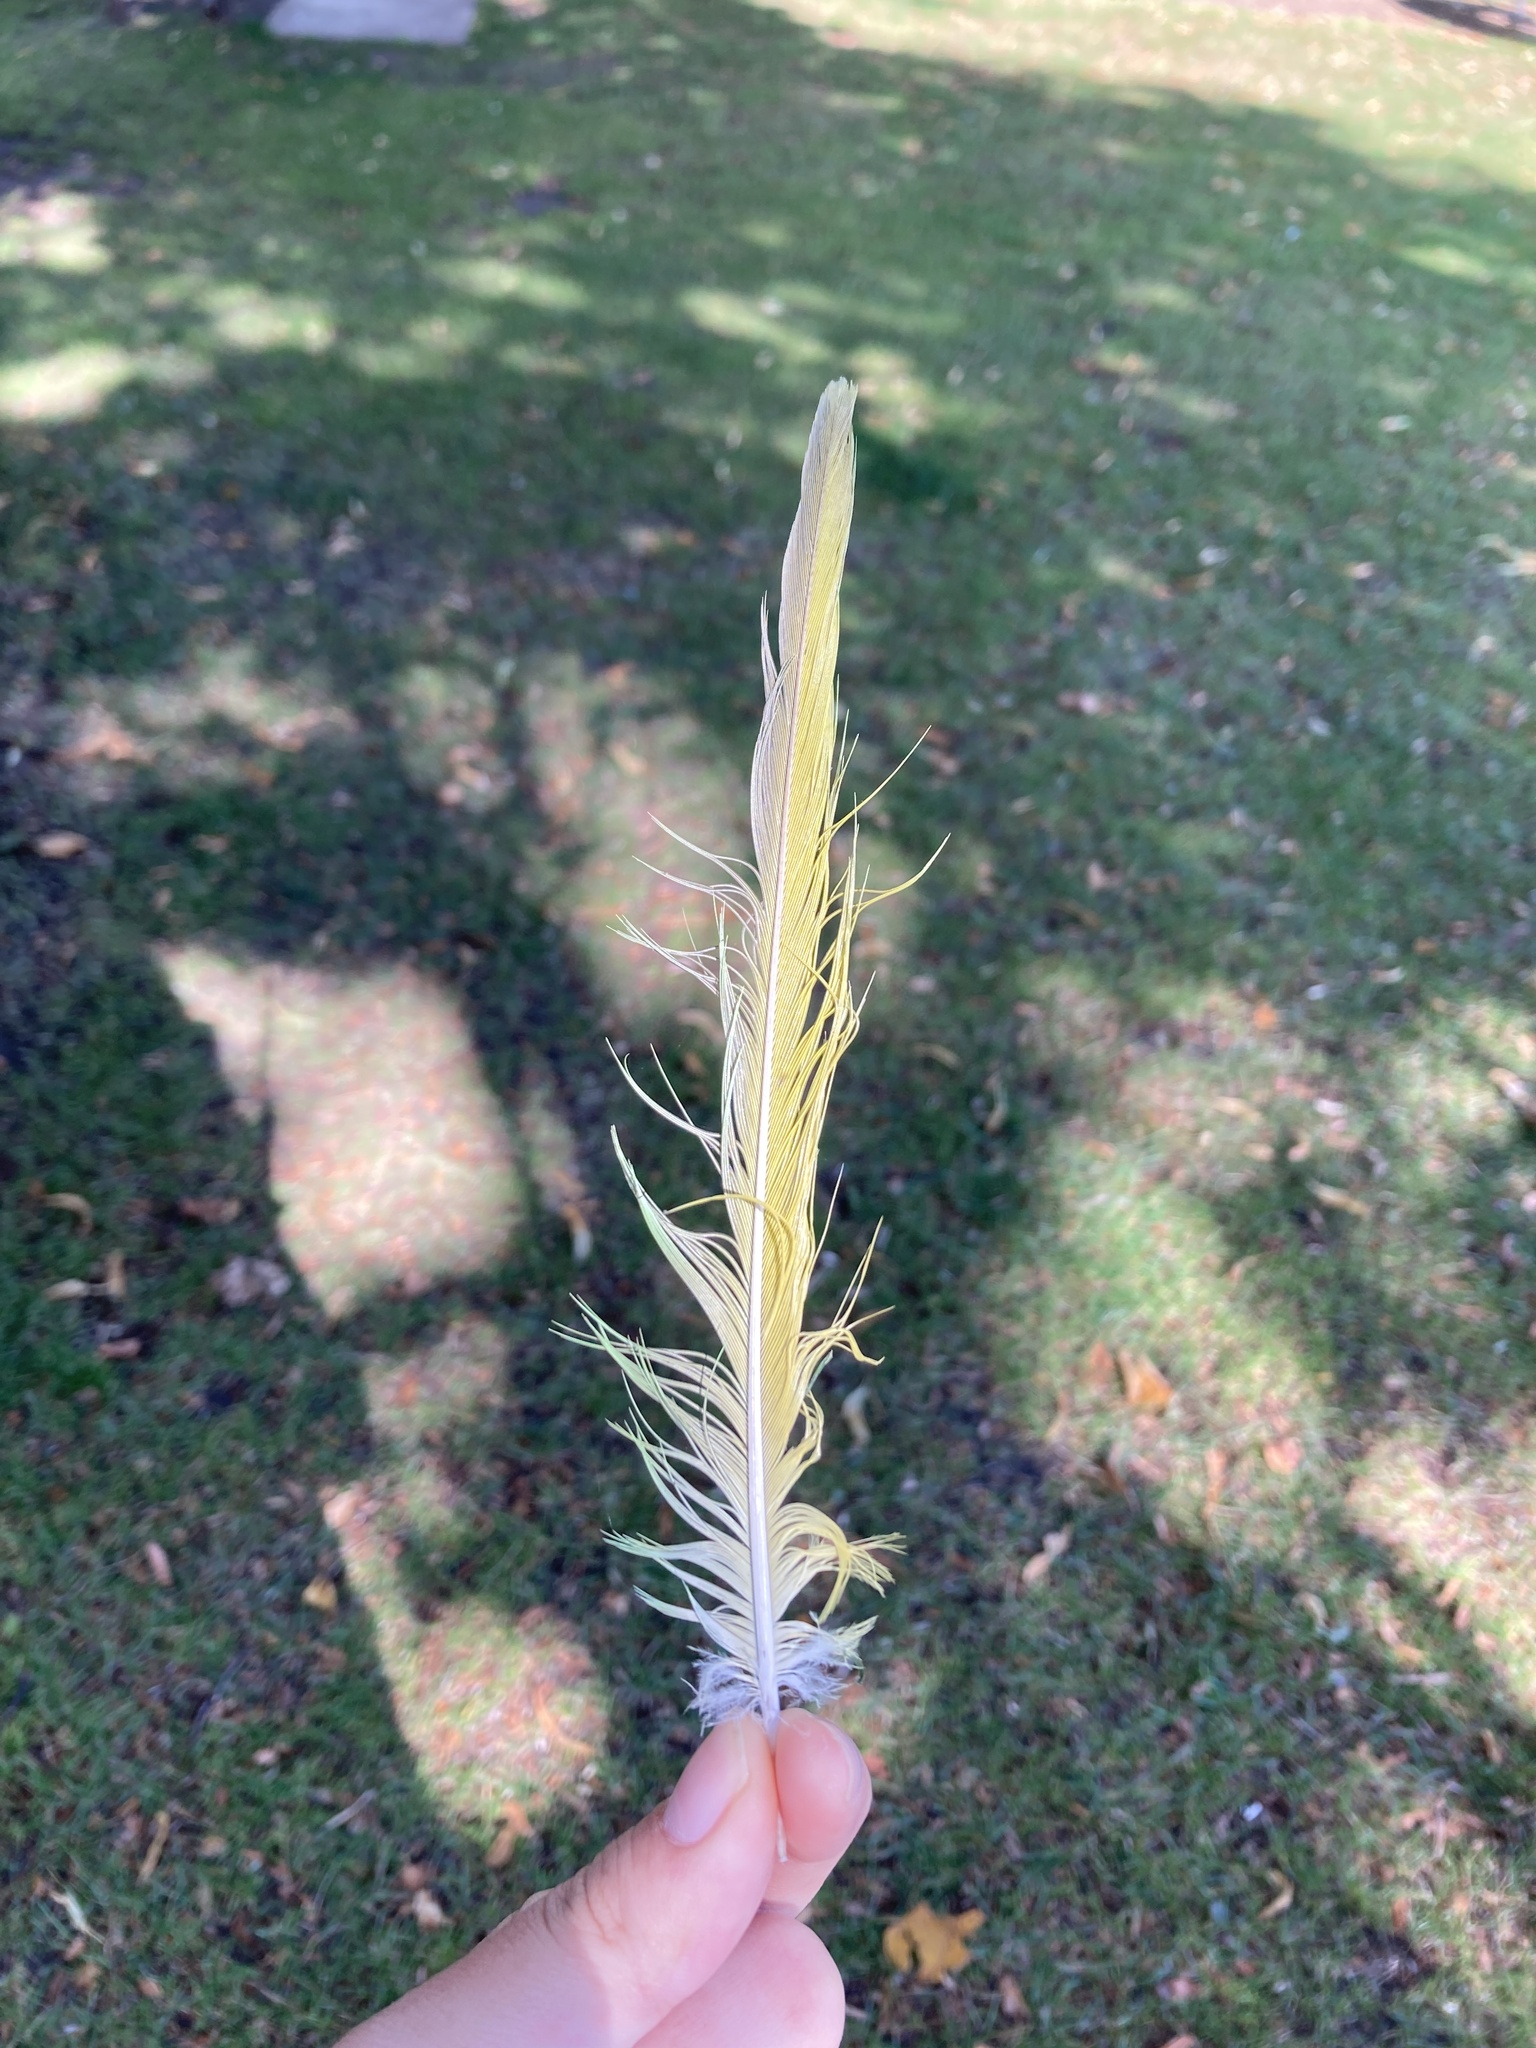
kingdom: Animalia
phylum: Chordata
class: Aves
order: Psittaciformes
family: Psittacidae
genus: Psittacula
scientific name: Psittacula krameri
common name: Rose-ringed parakeet
